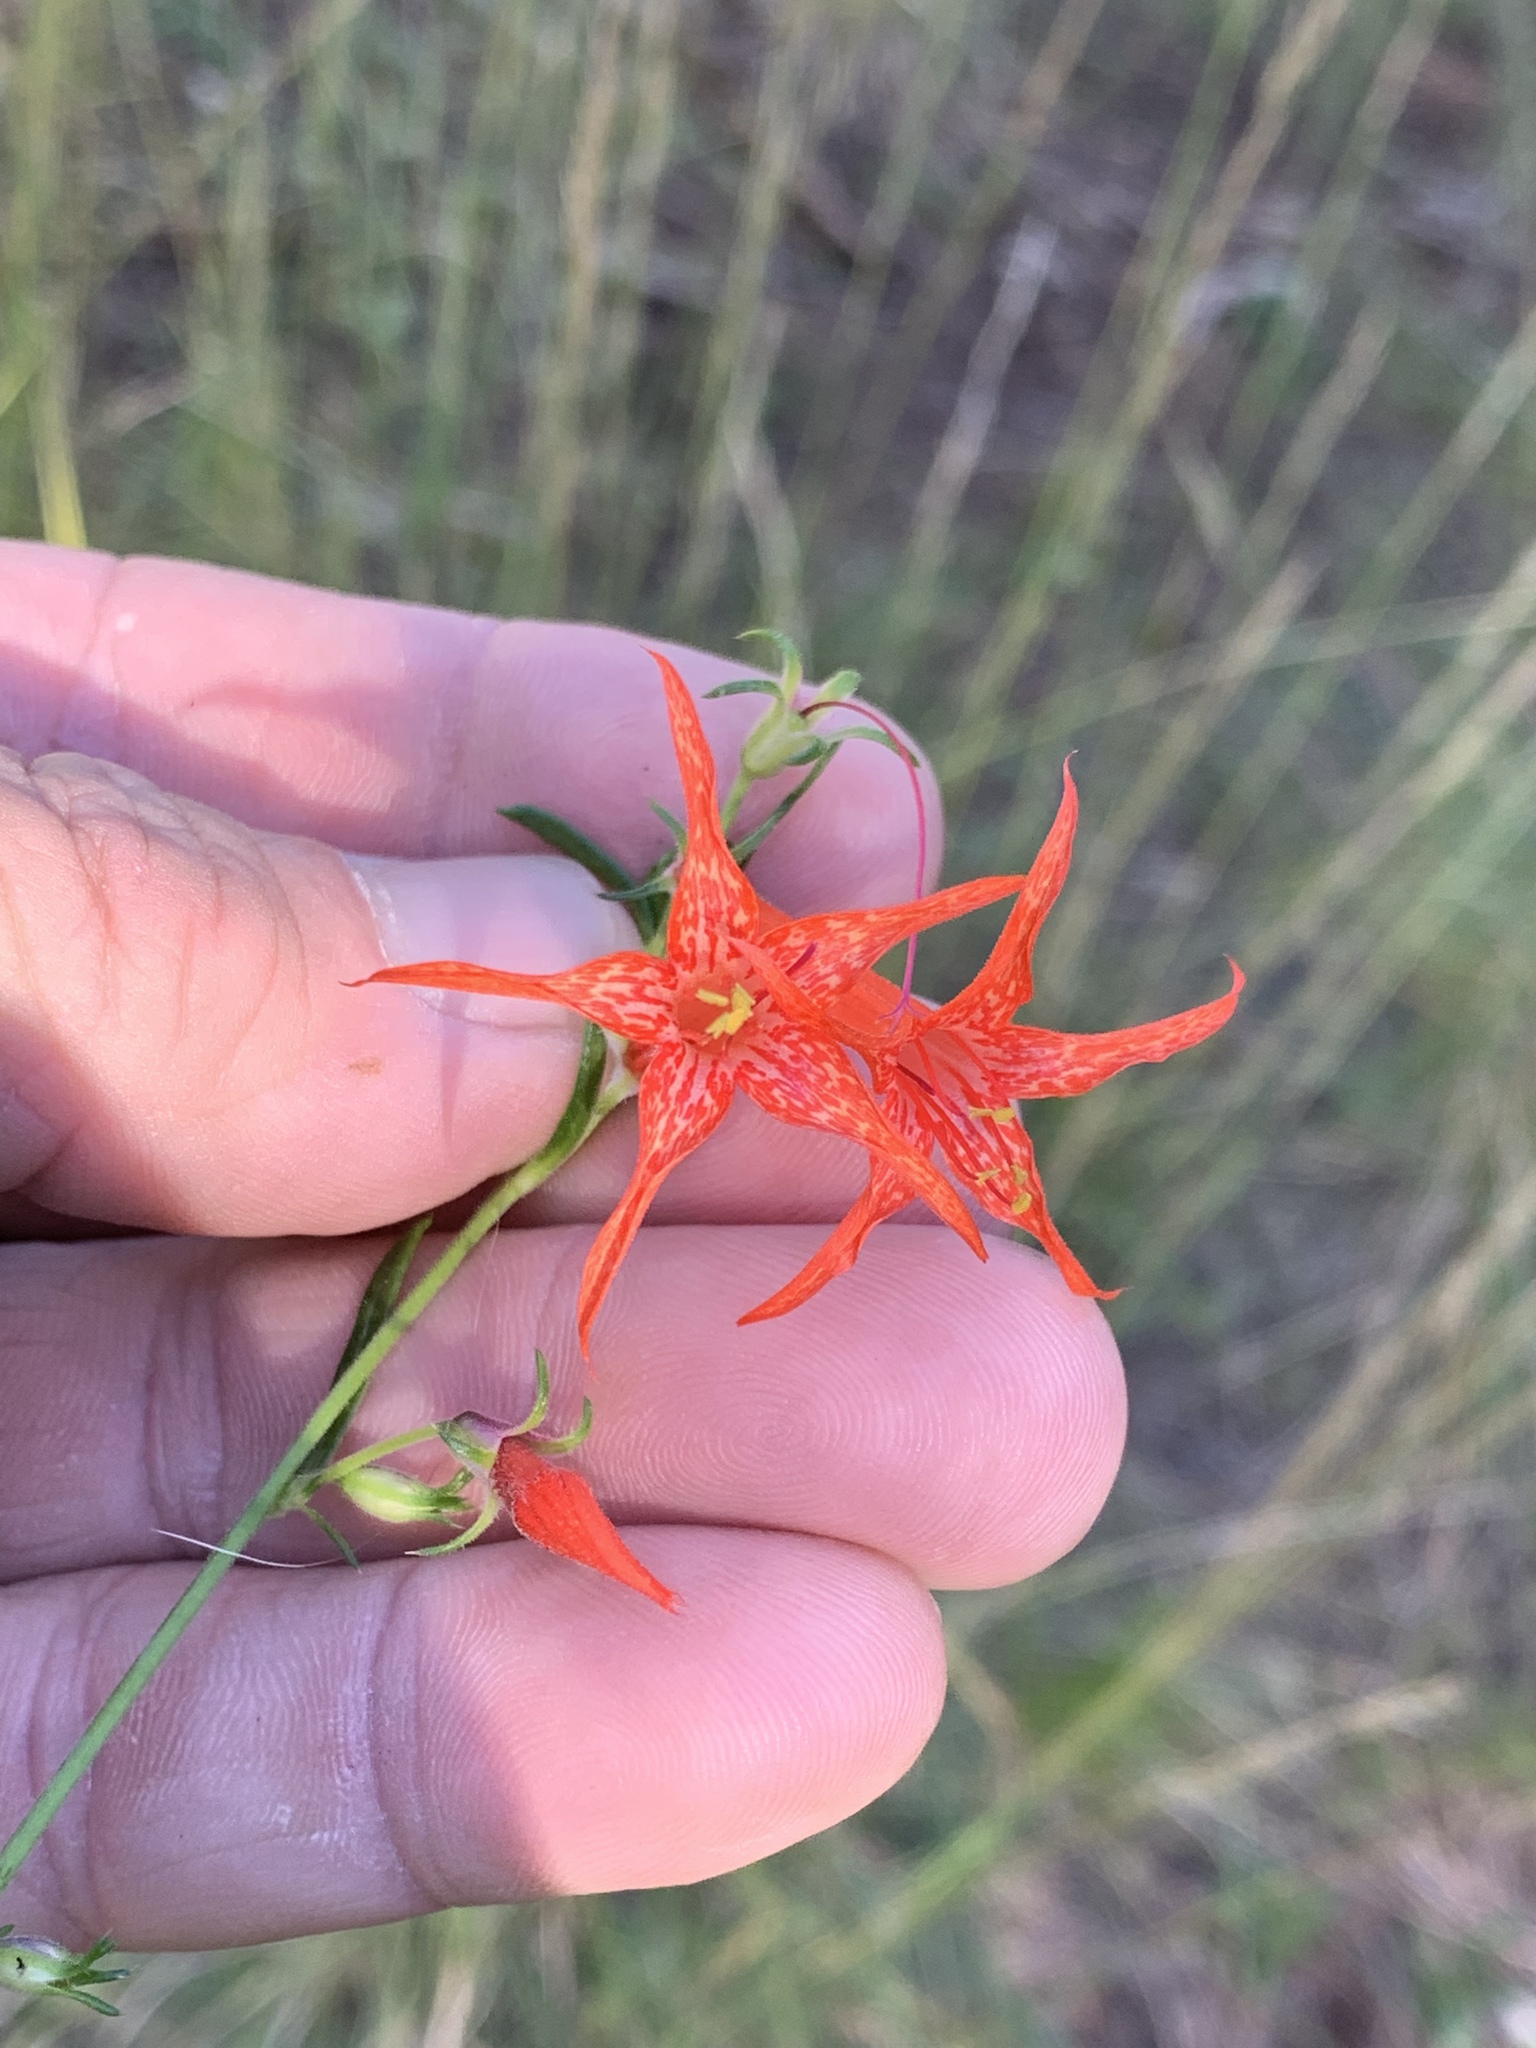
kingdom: Plantae
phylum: Tracheophyta
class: Magnoliopsida
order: Ericales
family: Polemoniaceae
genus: Ipomopsis
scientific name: Ipomopsis aggregata
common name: Scarlet gilia
